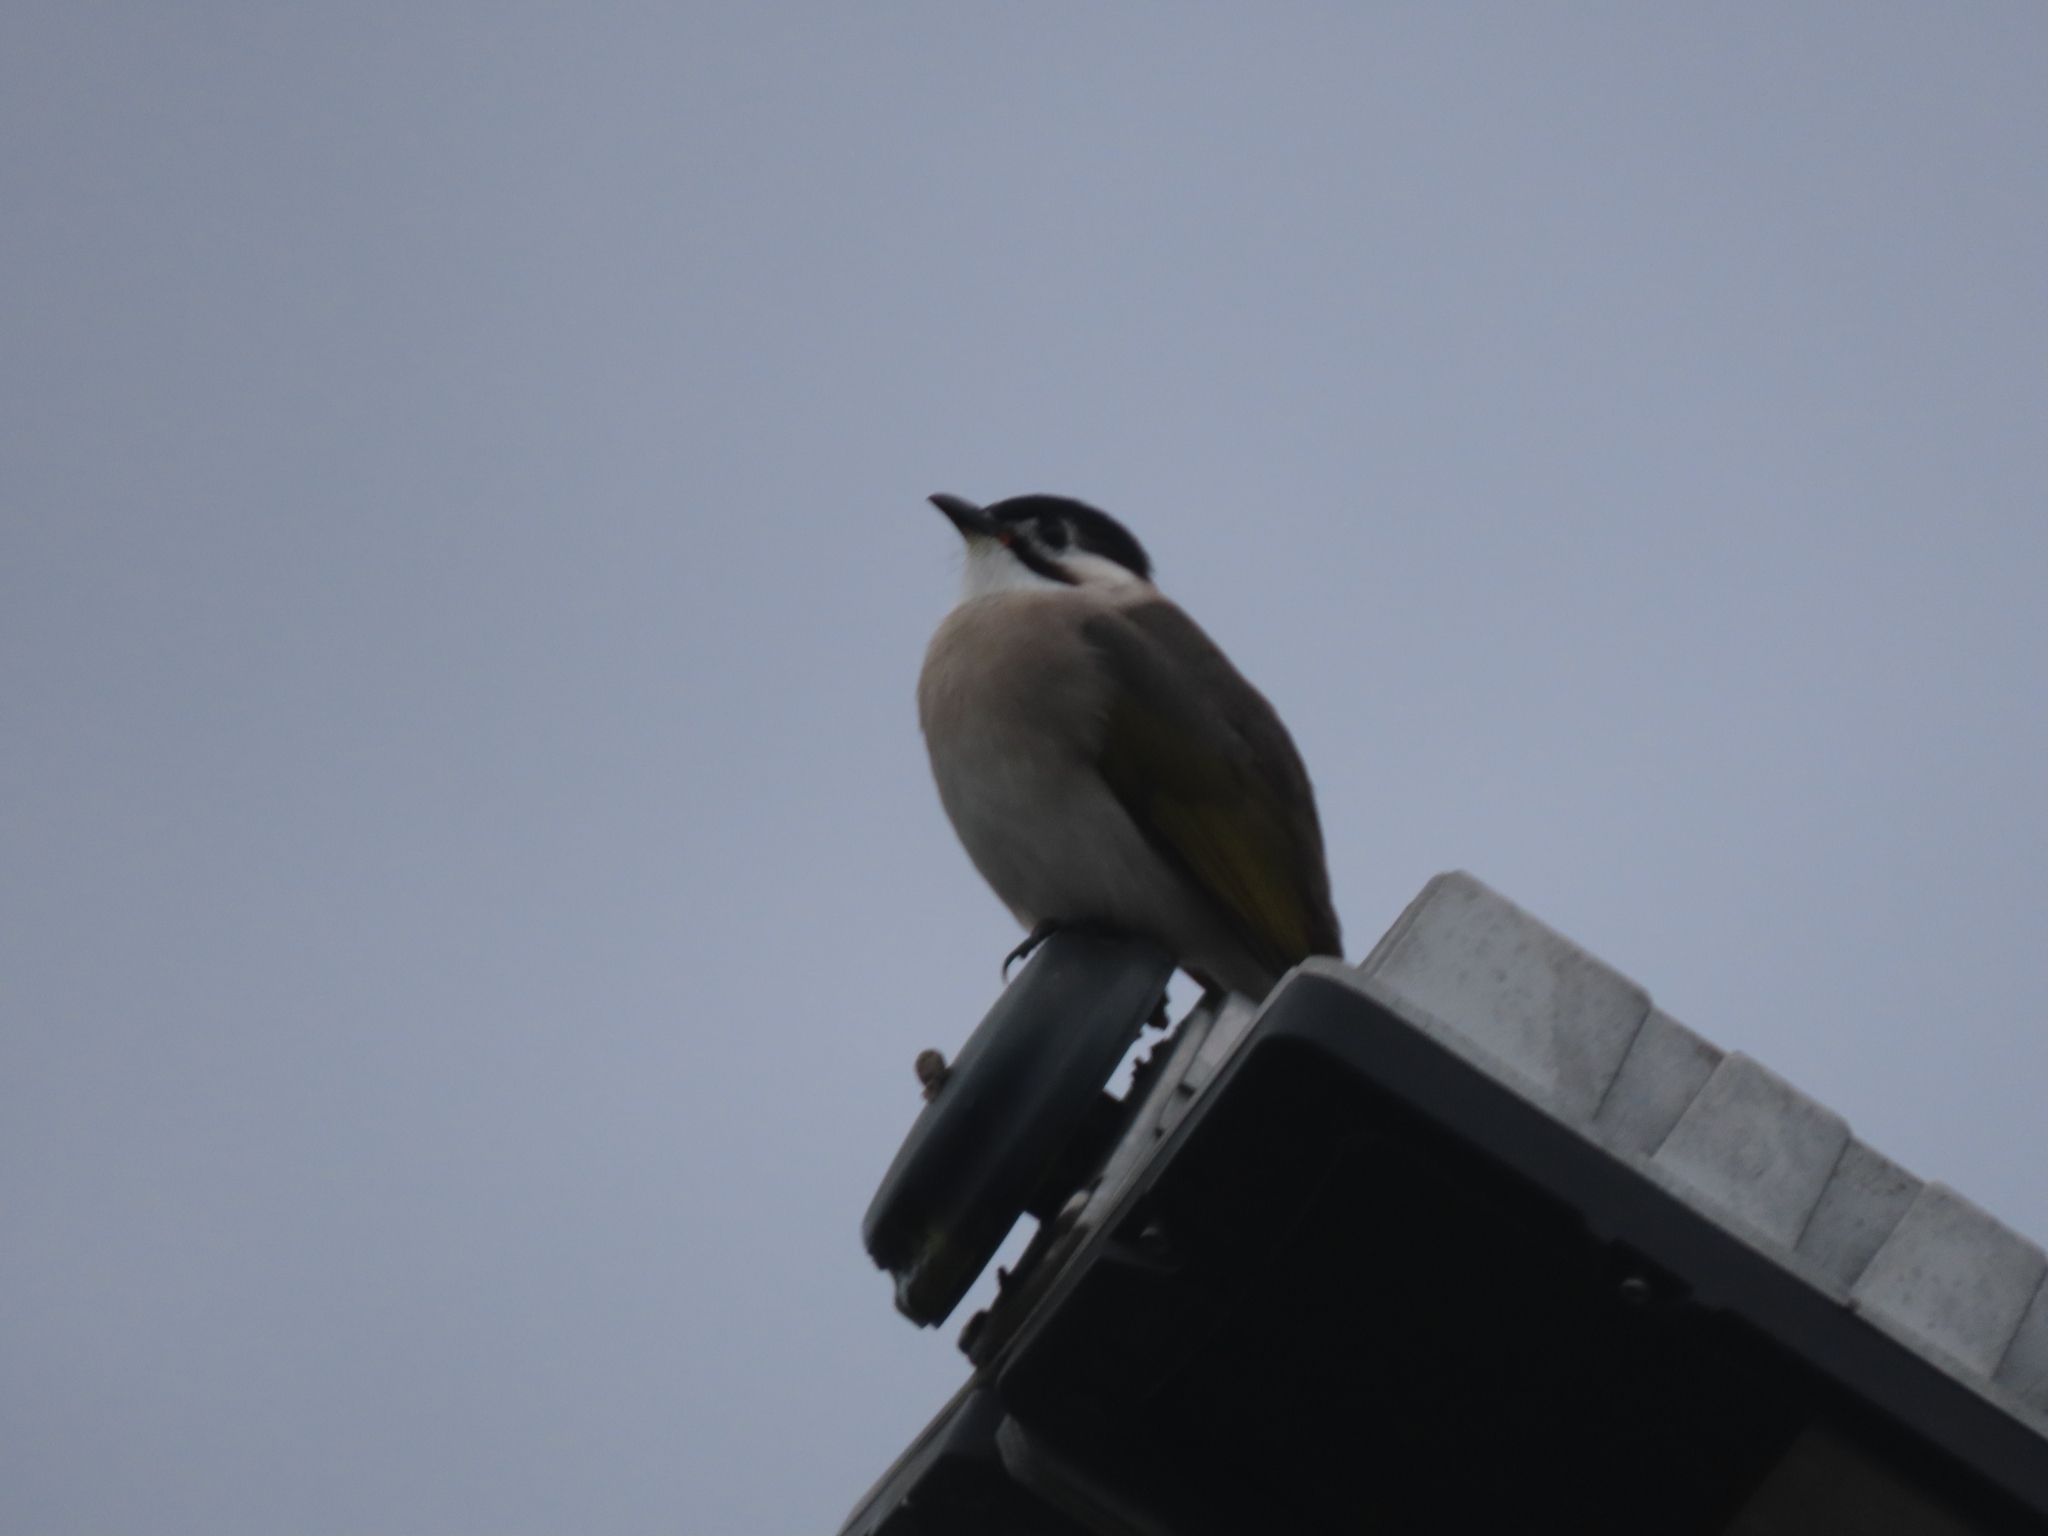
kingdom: Animalia
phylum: Chordata
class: Aves
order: Passeriformes
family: Pycnonotidae
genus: Pycnonotus
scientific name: Pycnonotus taivanus
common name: Styan's bulbul
